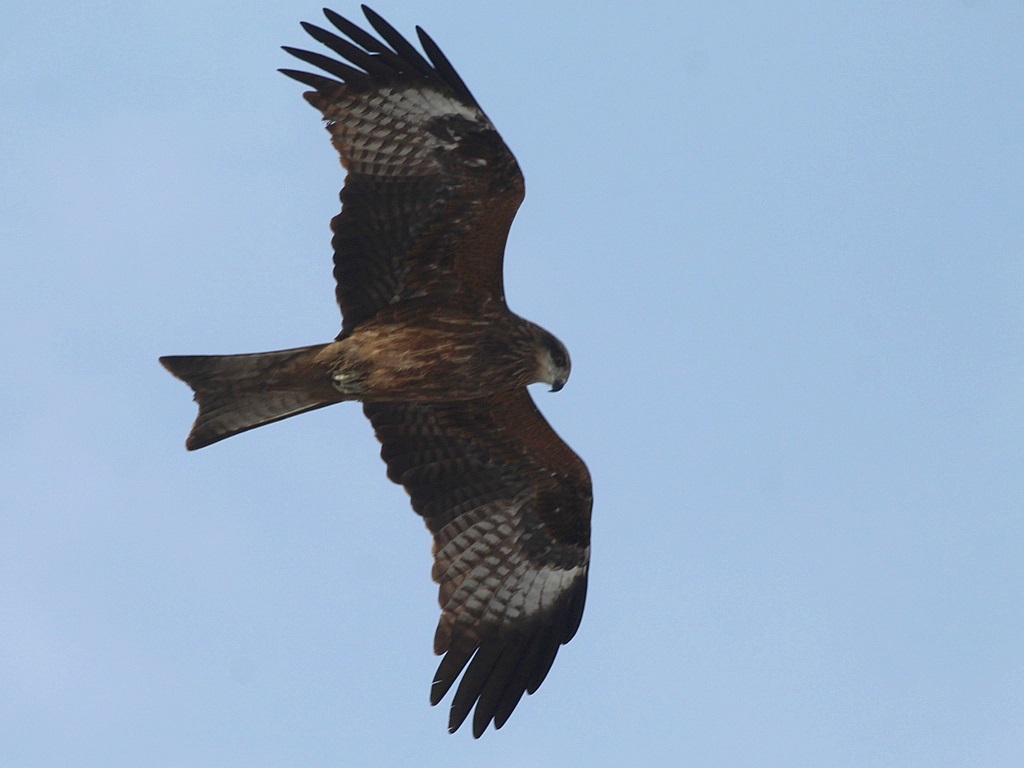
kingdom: Animalia
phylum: Chordata
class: Aves
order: Accipitriformes
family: Accipitridae
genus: Milvus
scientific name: Milvus migrans
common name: Black kite
